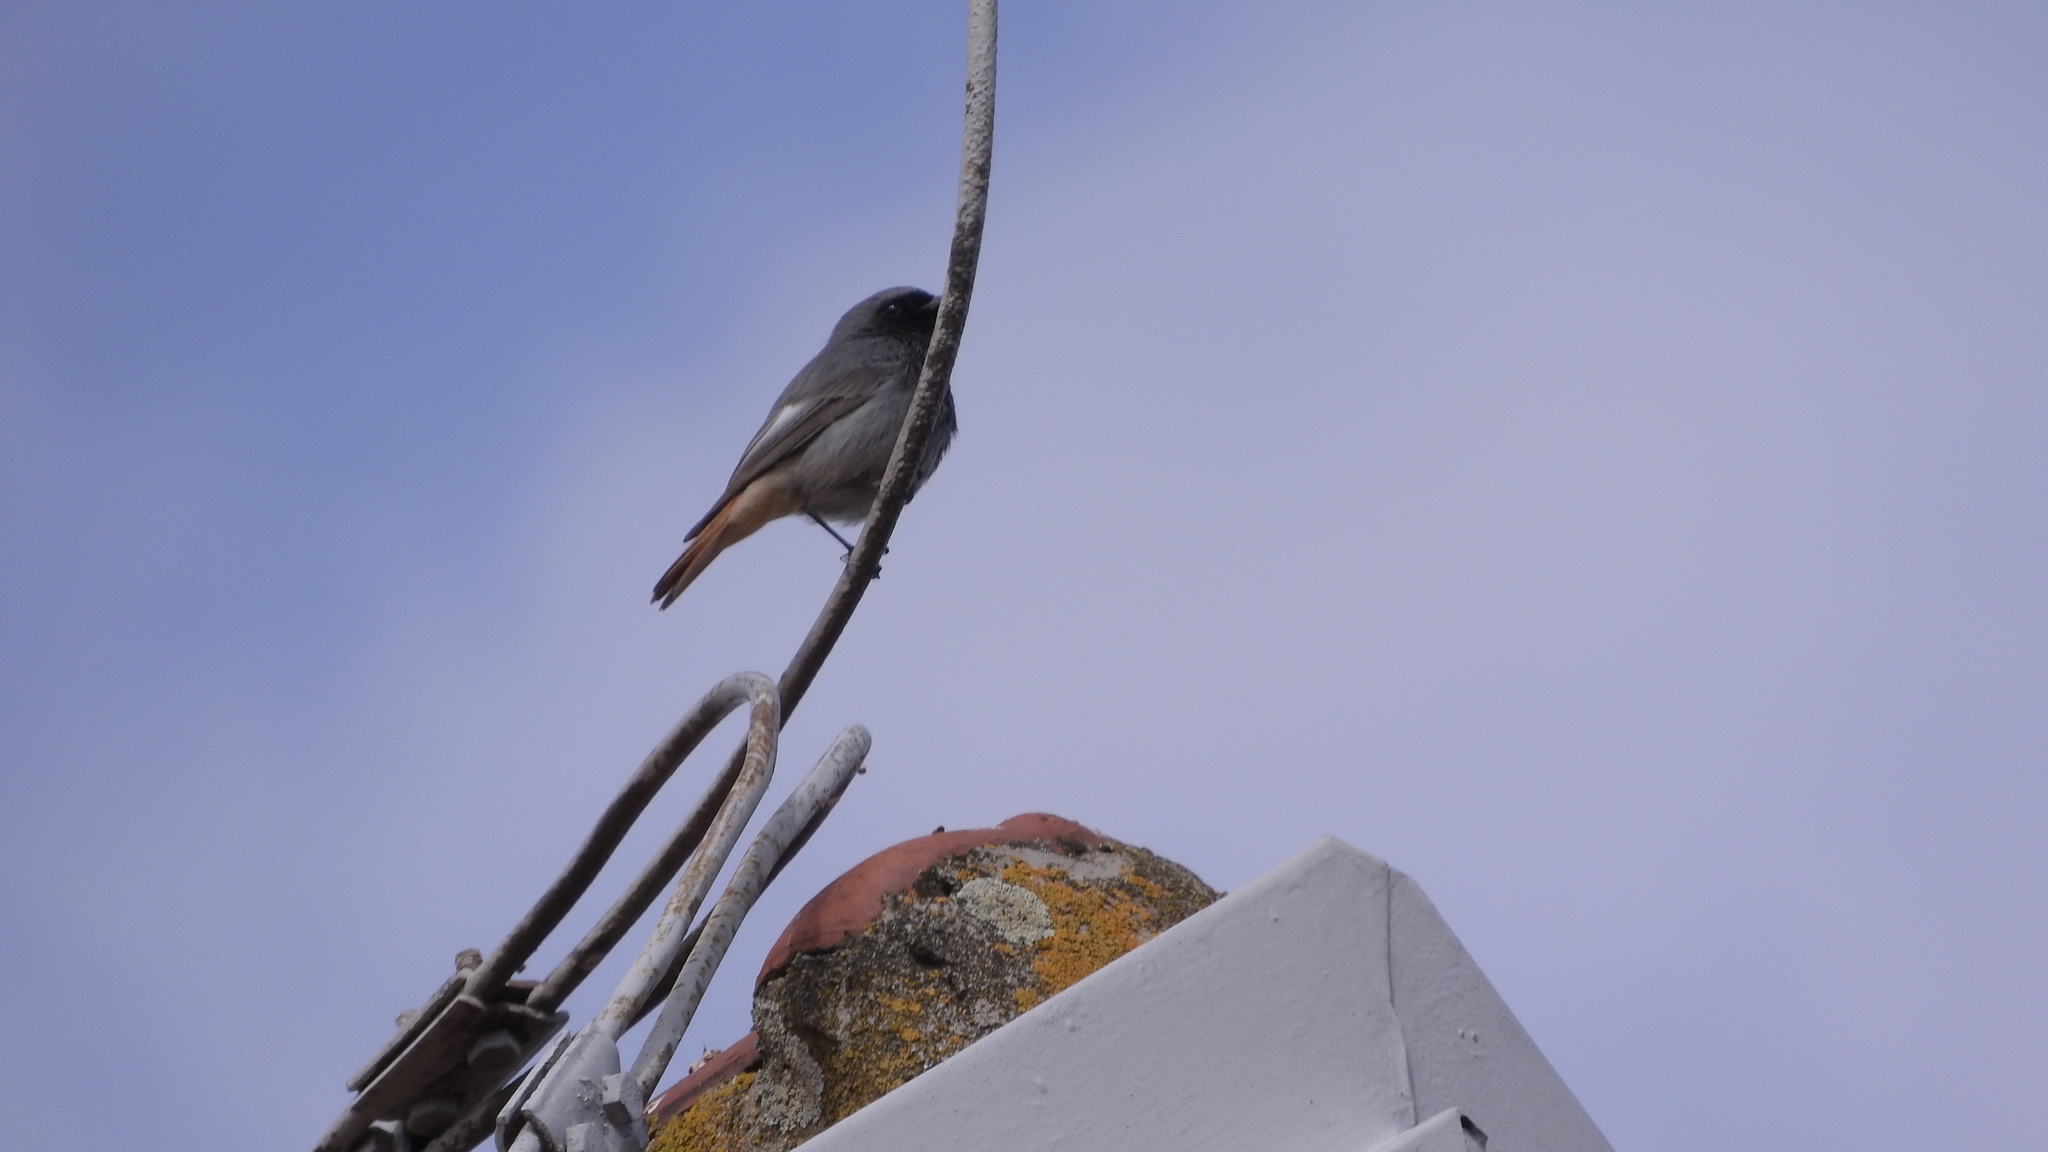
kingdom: Animalia
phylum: Chordata
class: Aves
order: Passeriformes
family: Muscicapidae
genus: Phoenicurus
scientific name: Phoenicurus ochruros
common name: Black redstart
